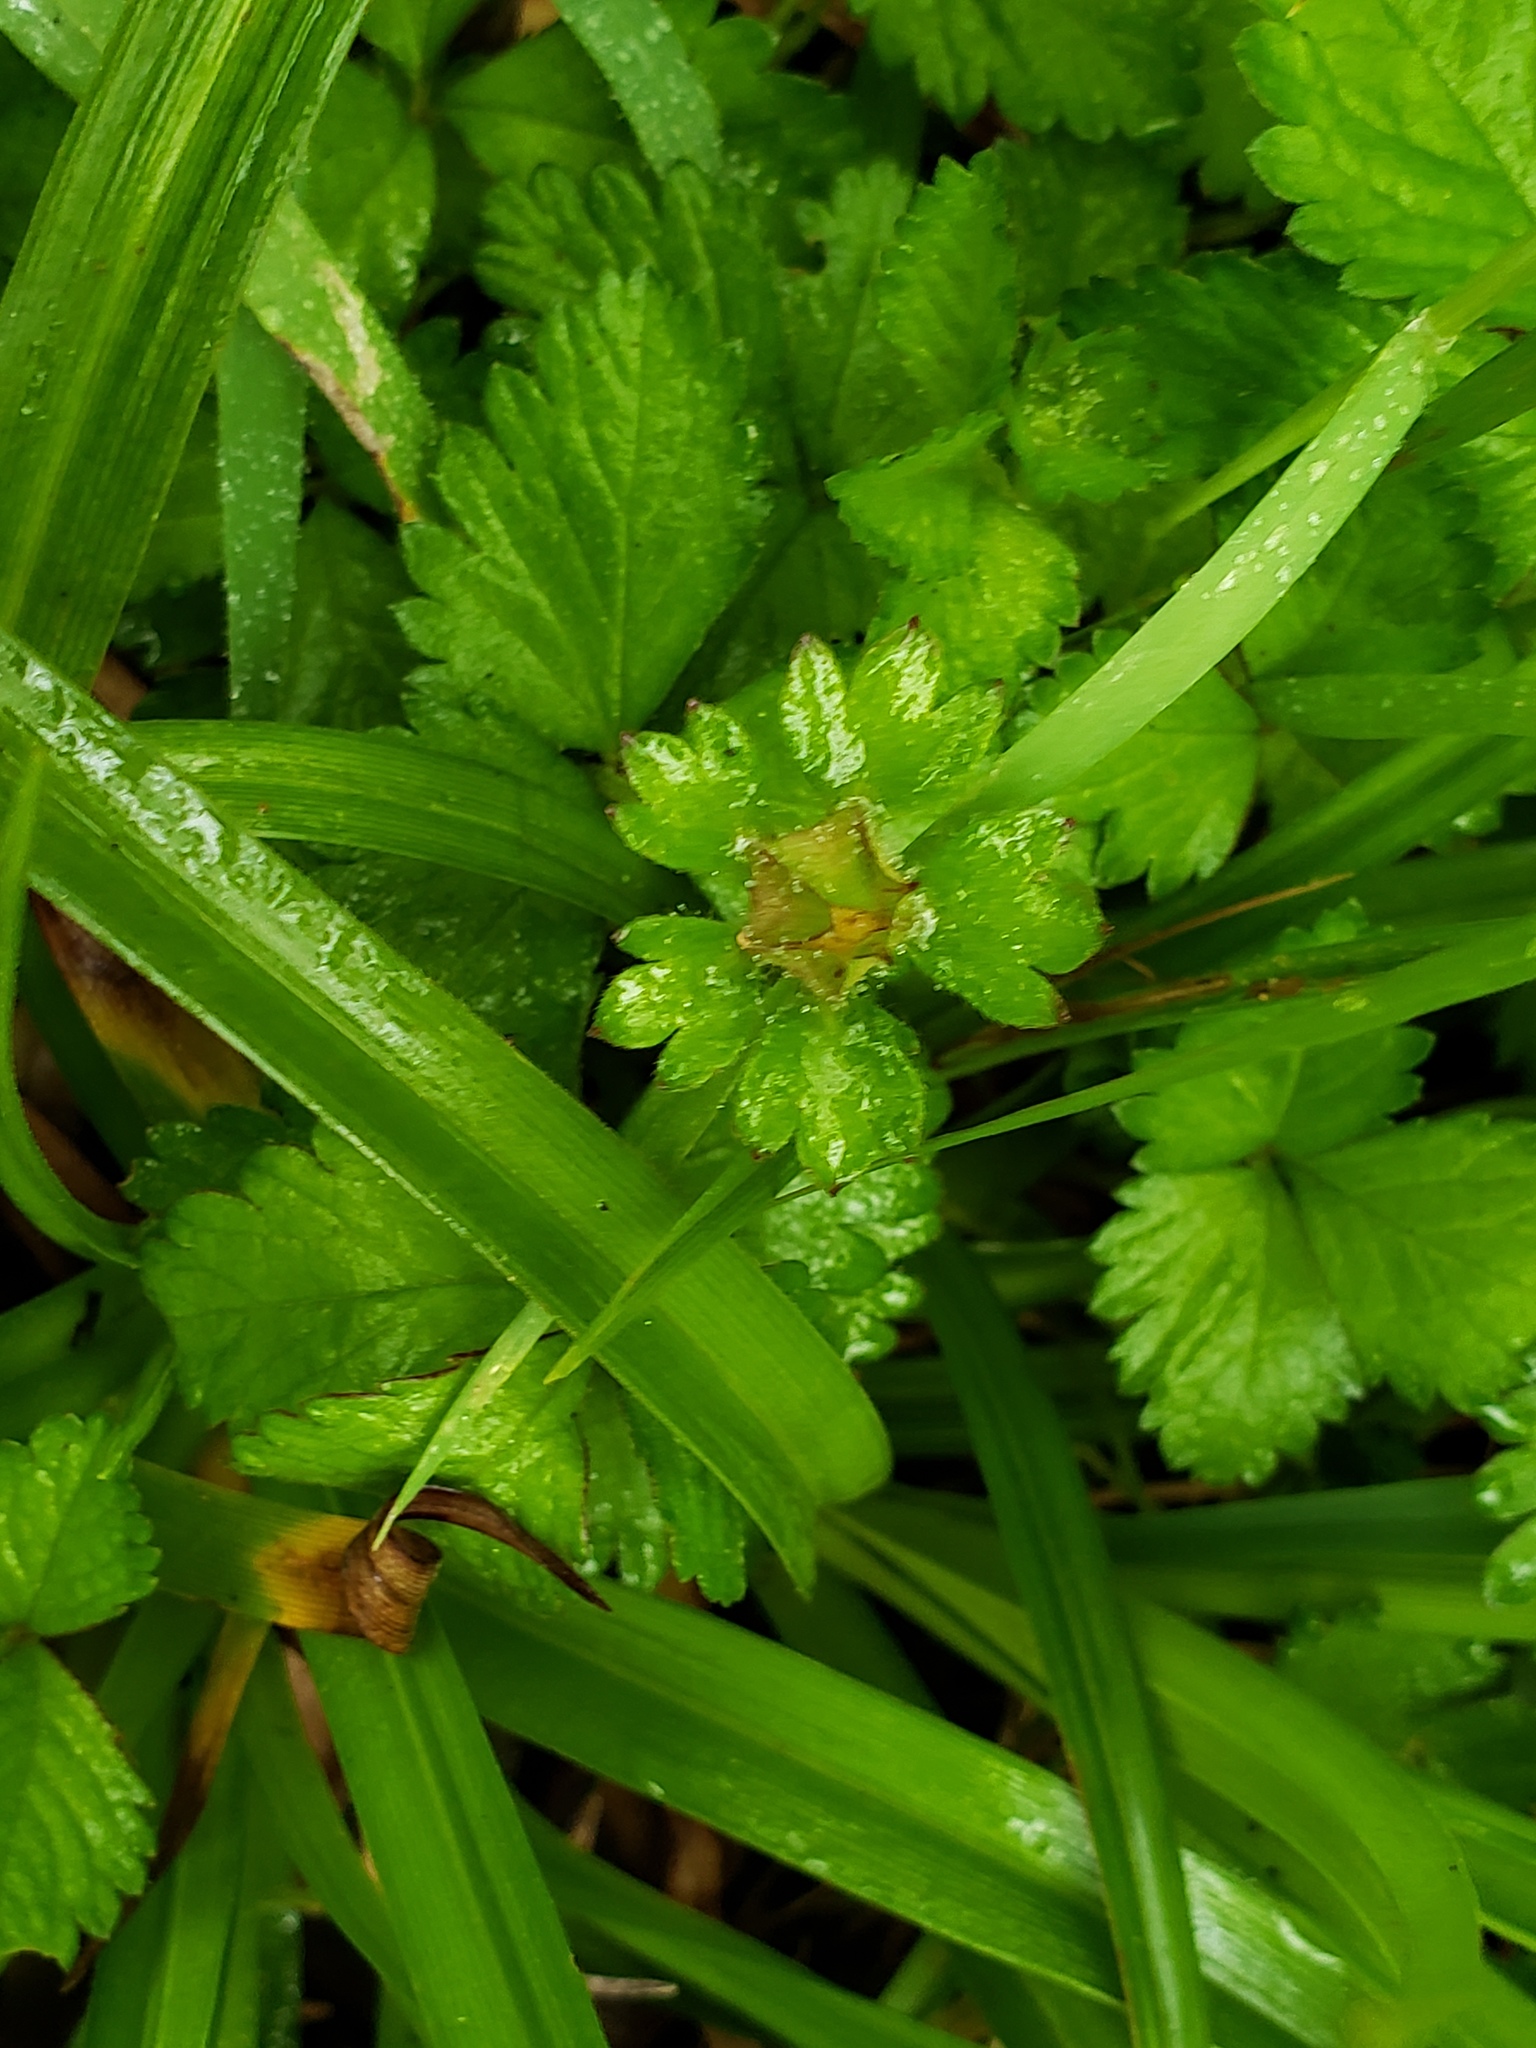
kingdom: Plantae
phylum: Tracheophyta
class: Magnoliopsida
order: Rosales
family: Rosaceae
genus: Potentilla
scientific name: Potentilla indica
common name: Yellow-flowered strawberry
